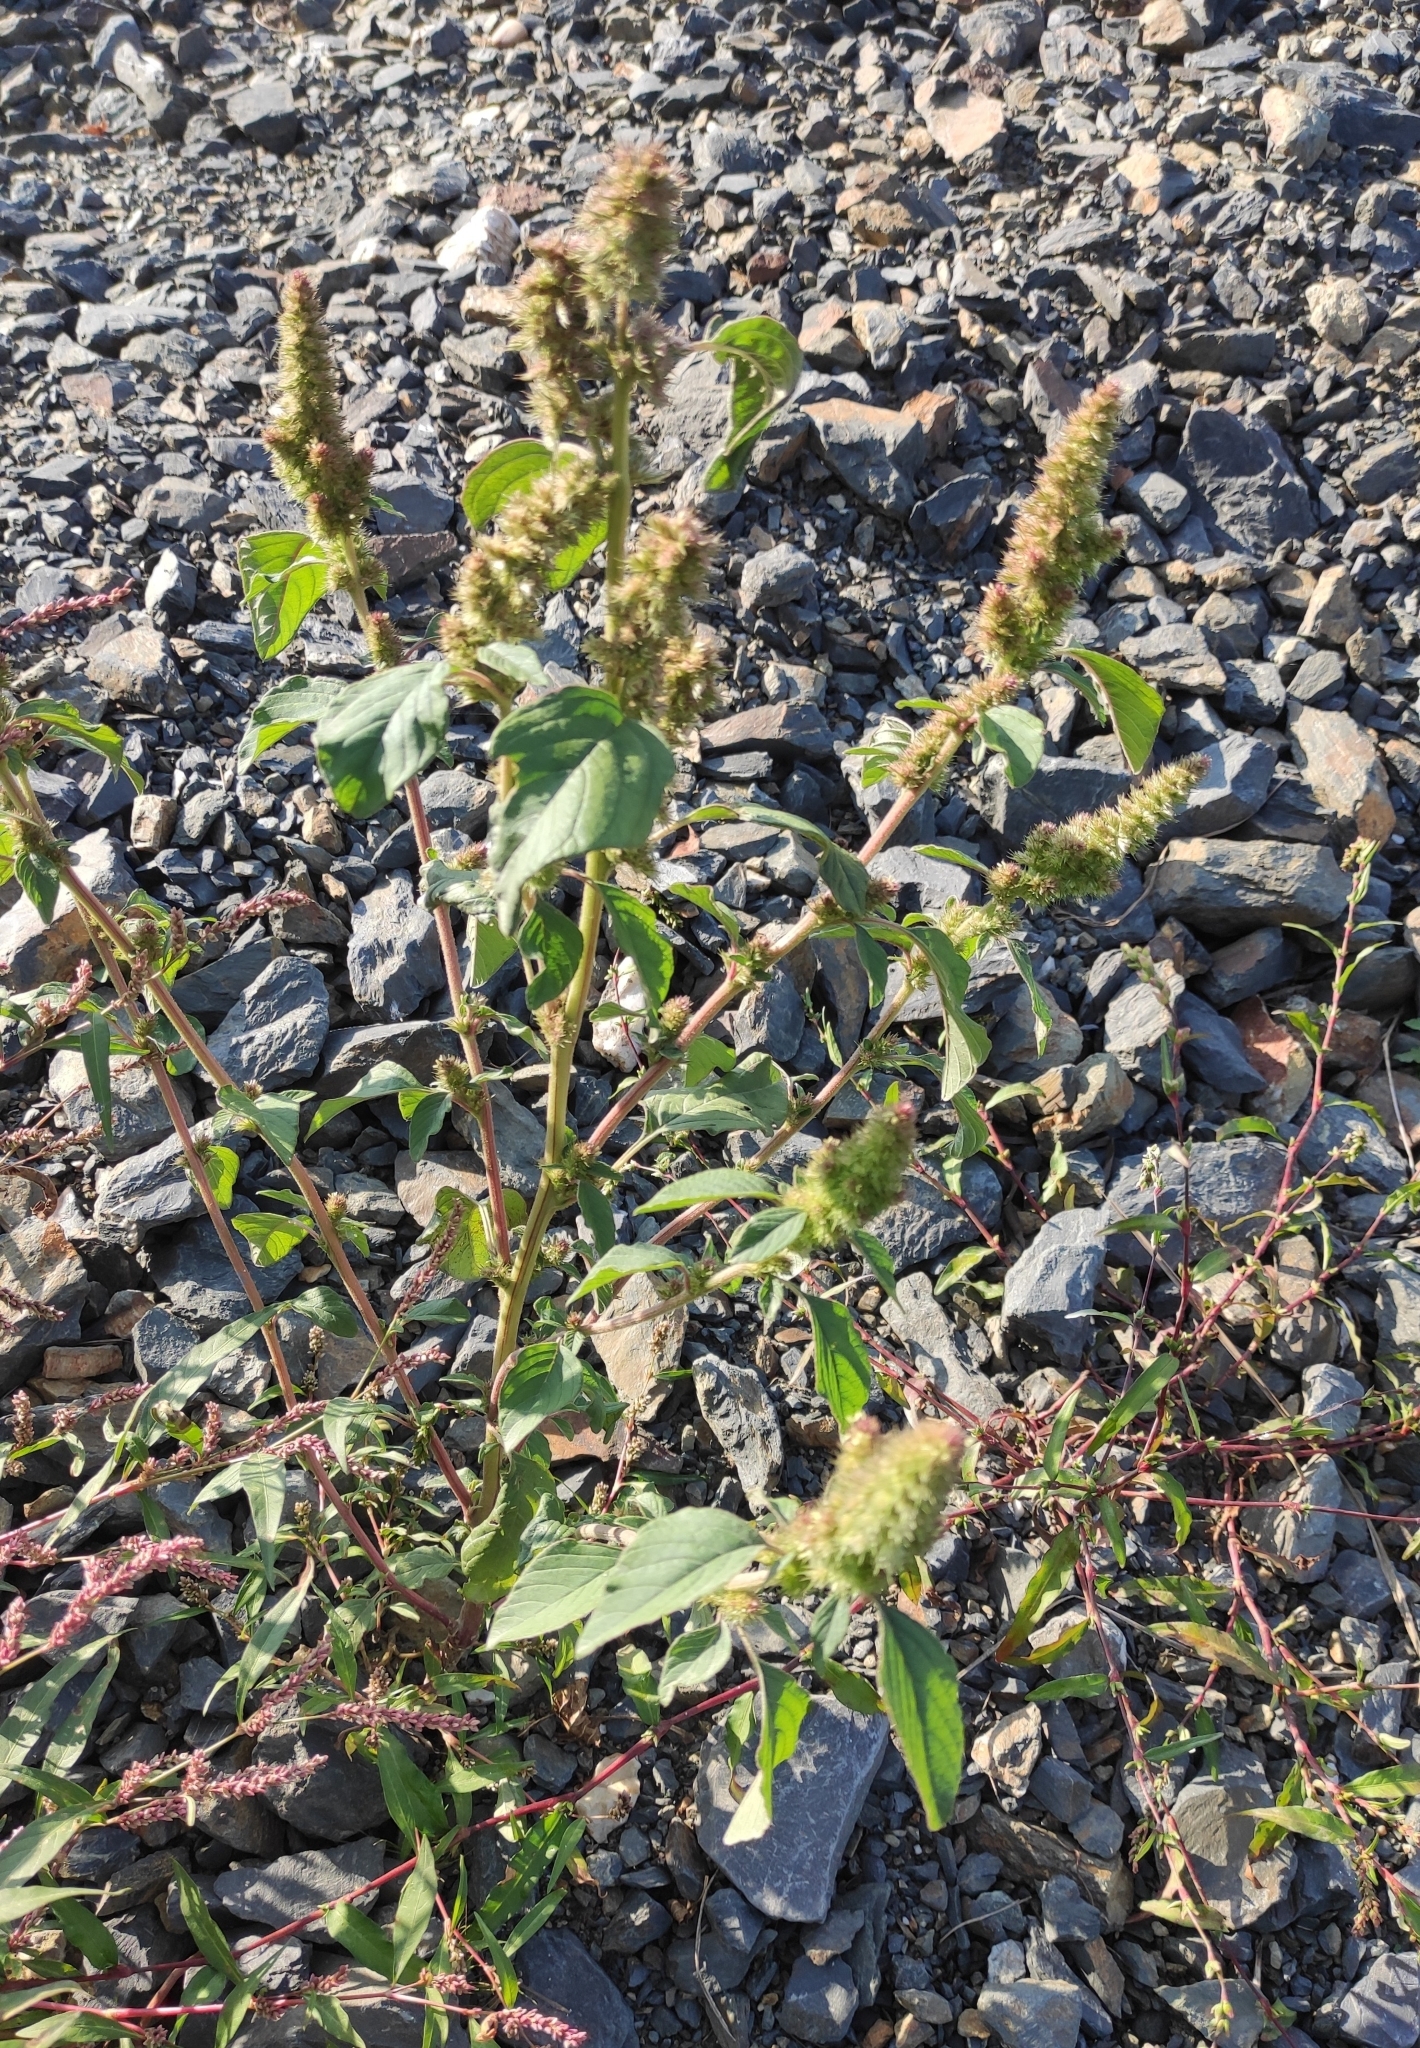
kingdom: Plantae
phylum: Tracheophyta
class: Magnoliopsida
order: Caryophyllales
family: Amaranthaceae
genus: Amaranthus
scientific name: Amaranthus retroflexus
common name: Redroot amaranth
